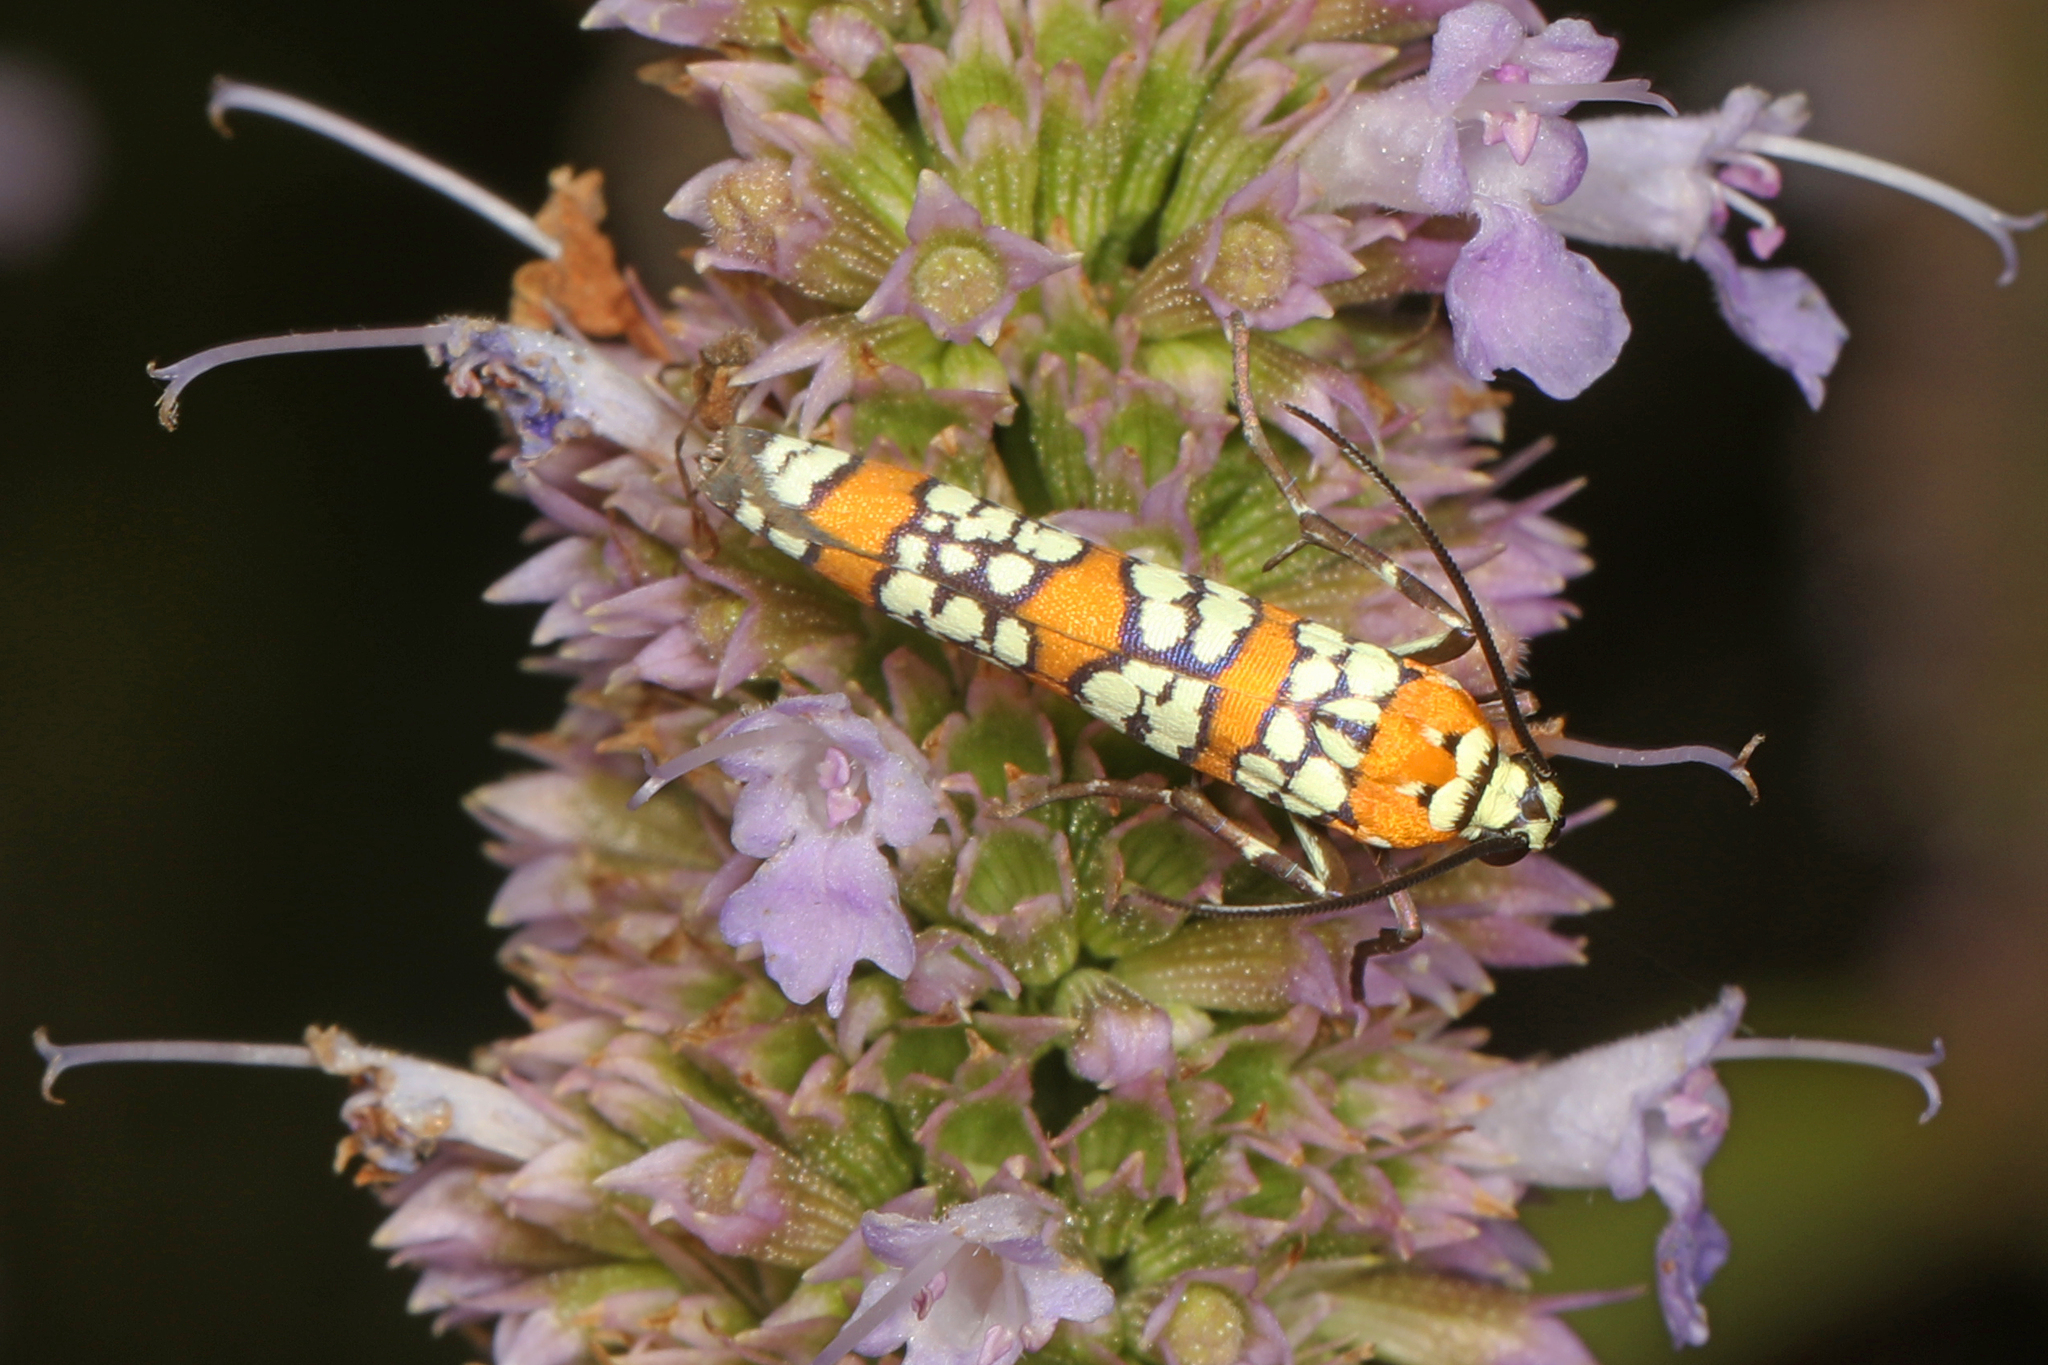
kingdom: Animalia
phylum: Arthropoda
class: Insecta
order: Lepidoptera
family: Attevidae
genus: Atteva
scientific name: Atteva punctella
